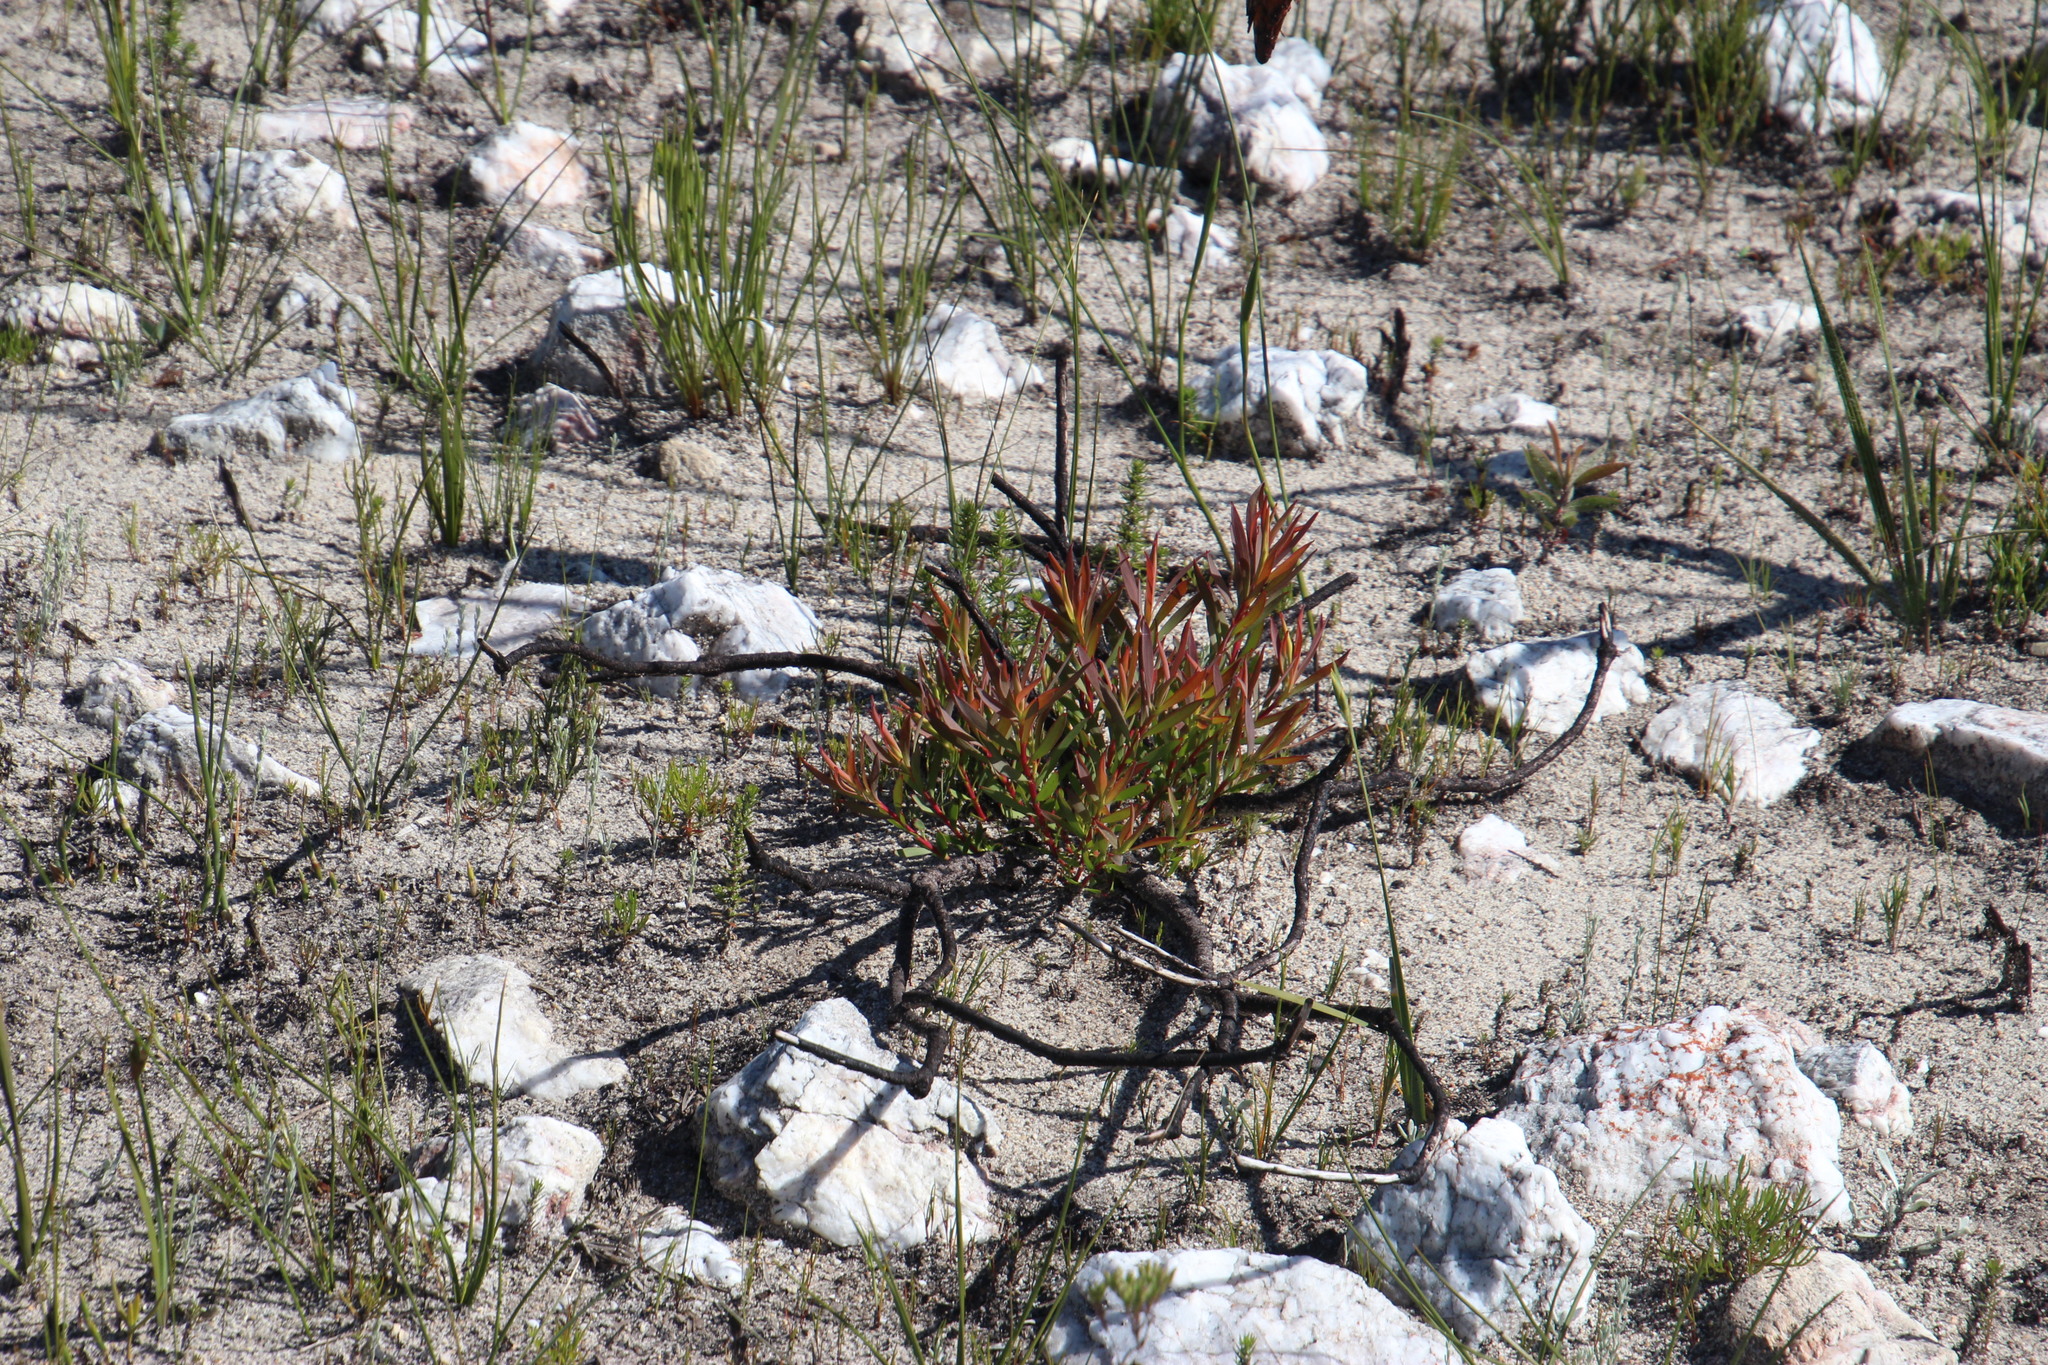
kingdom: Plantae
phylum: Tracheophyta
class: Magnoliopsida
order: Proteales
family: Proteaceae
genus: Leucadendron
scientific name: Leucadendron salignum
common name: Common sunshine conebush
